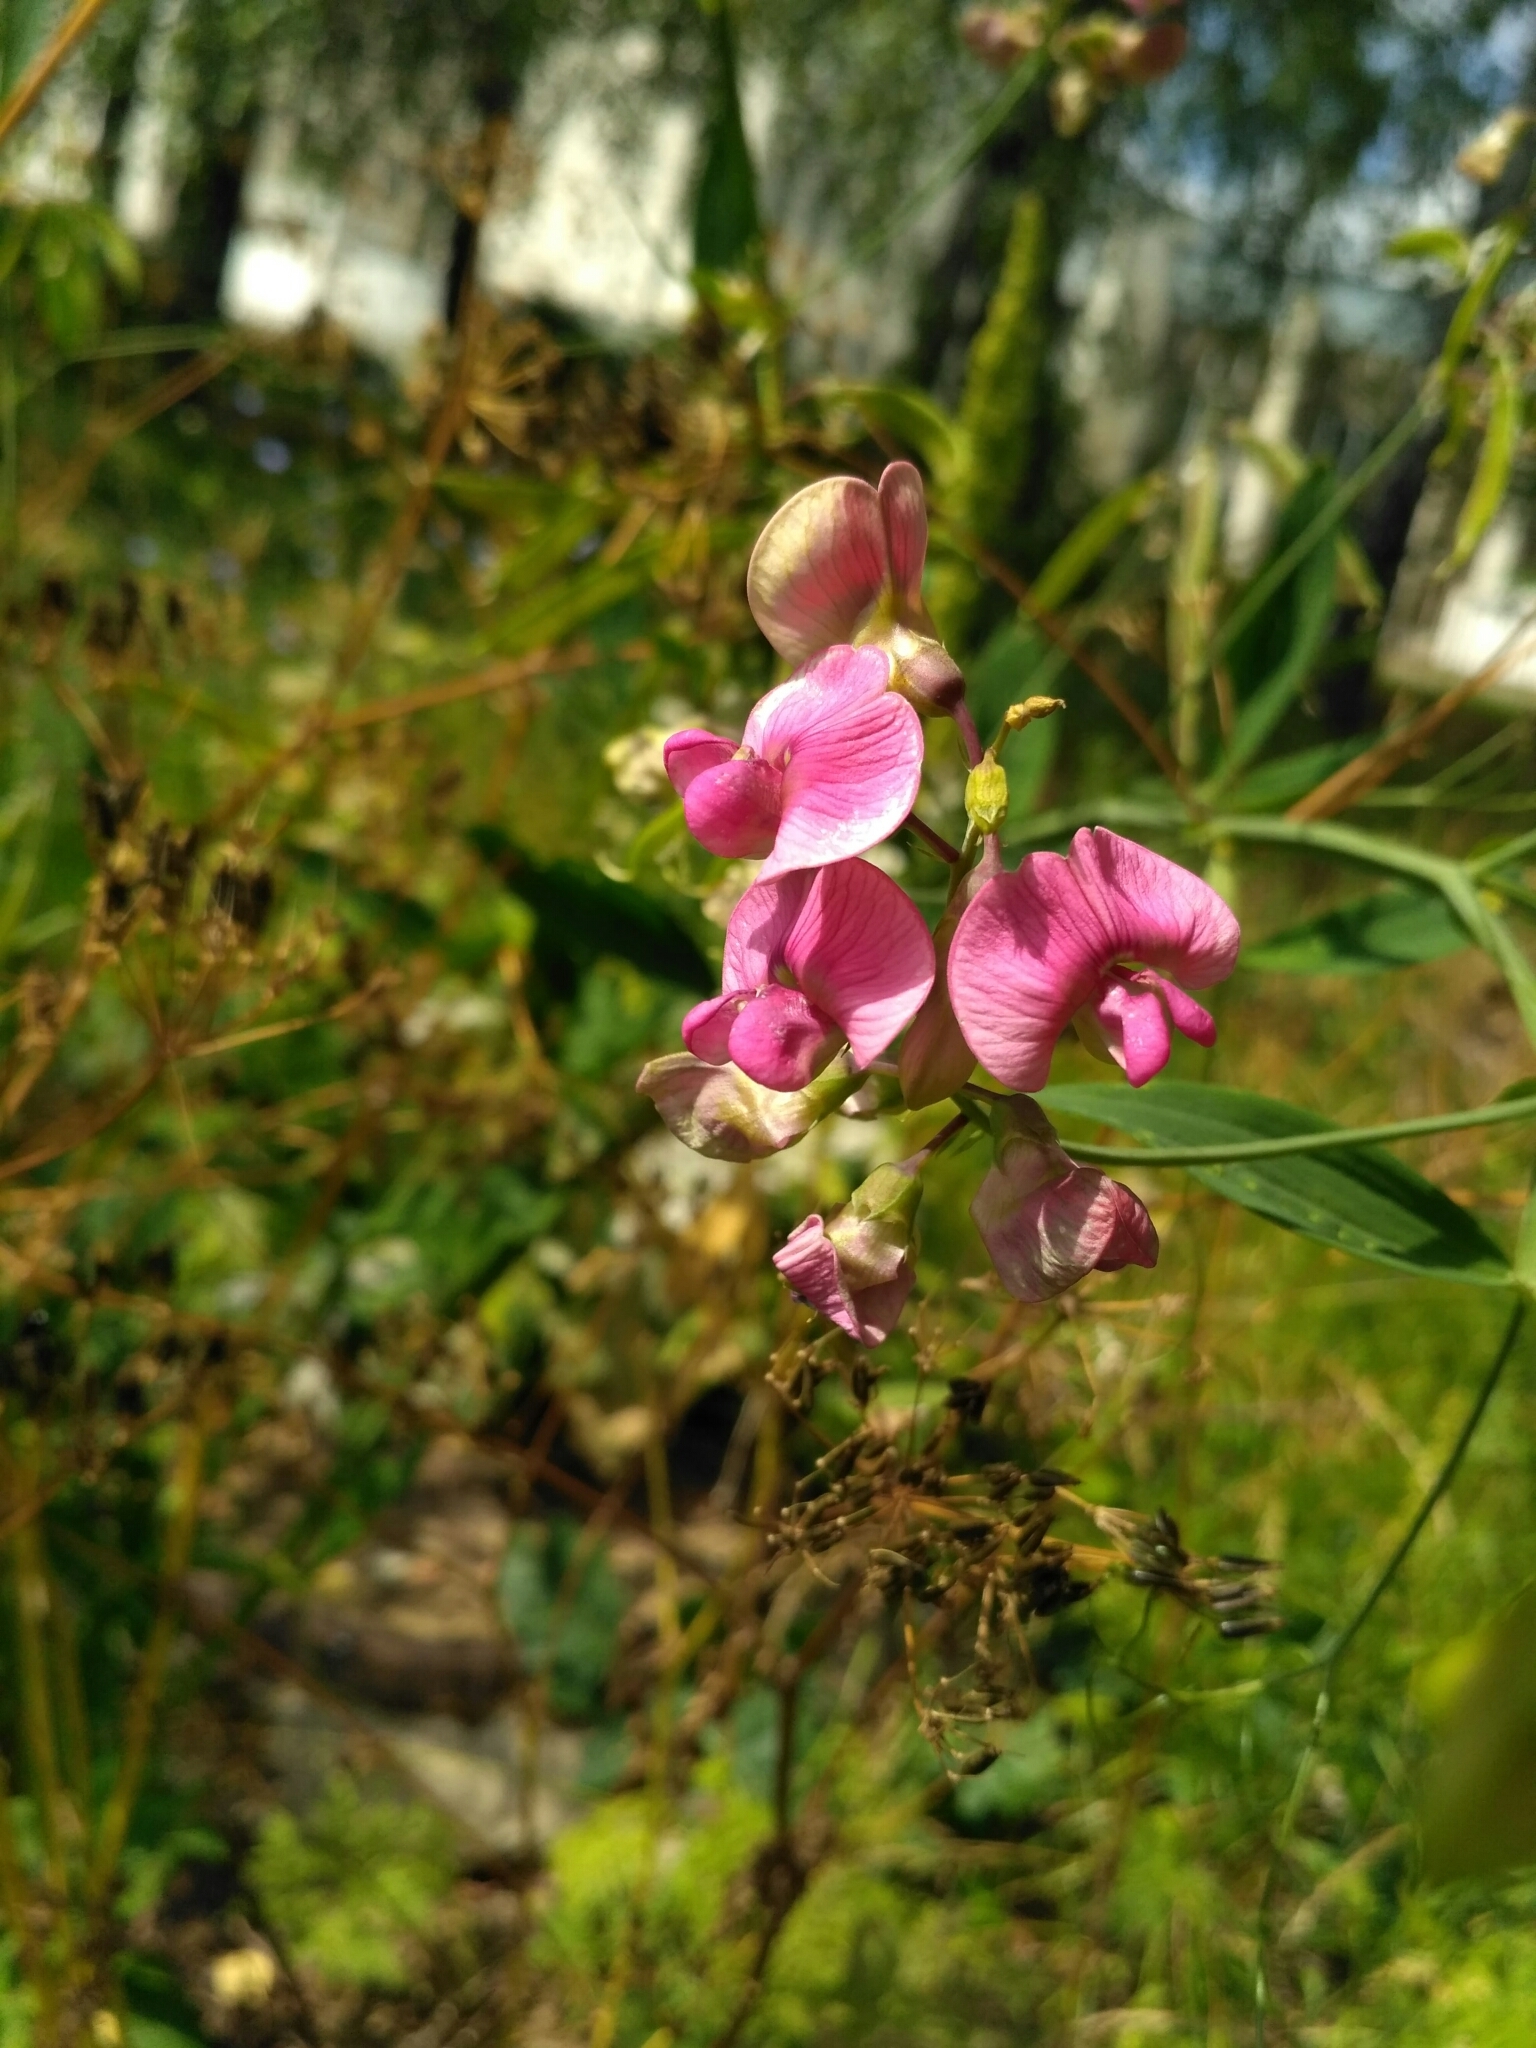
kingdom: Plantae
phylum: Tracheophyta
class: Magnoliopsida
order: Fabales
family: Fabaceae
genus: Lathyrus
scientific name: Lathyrus sylvestris
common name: Flat pea
